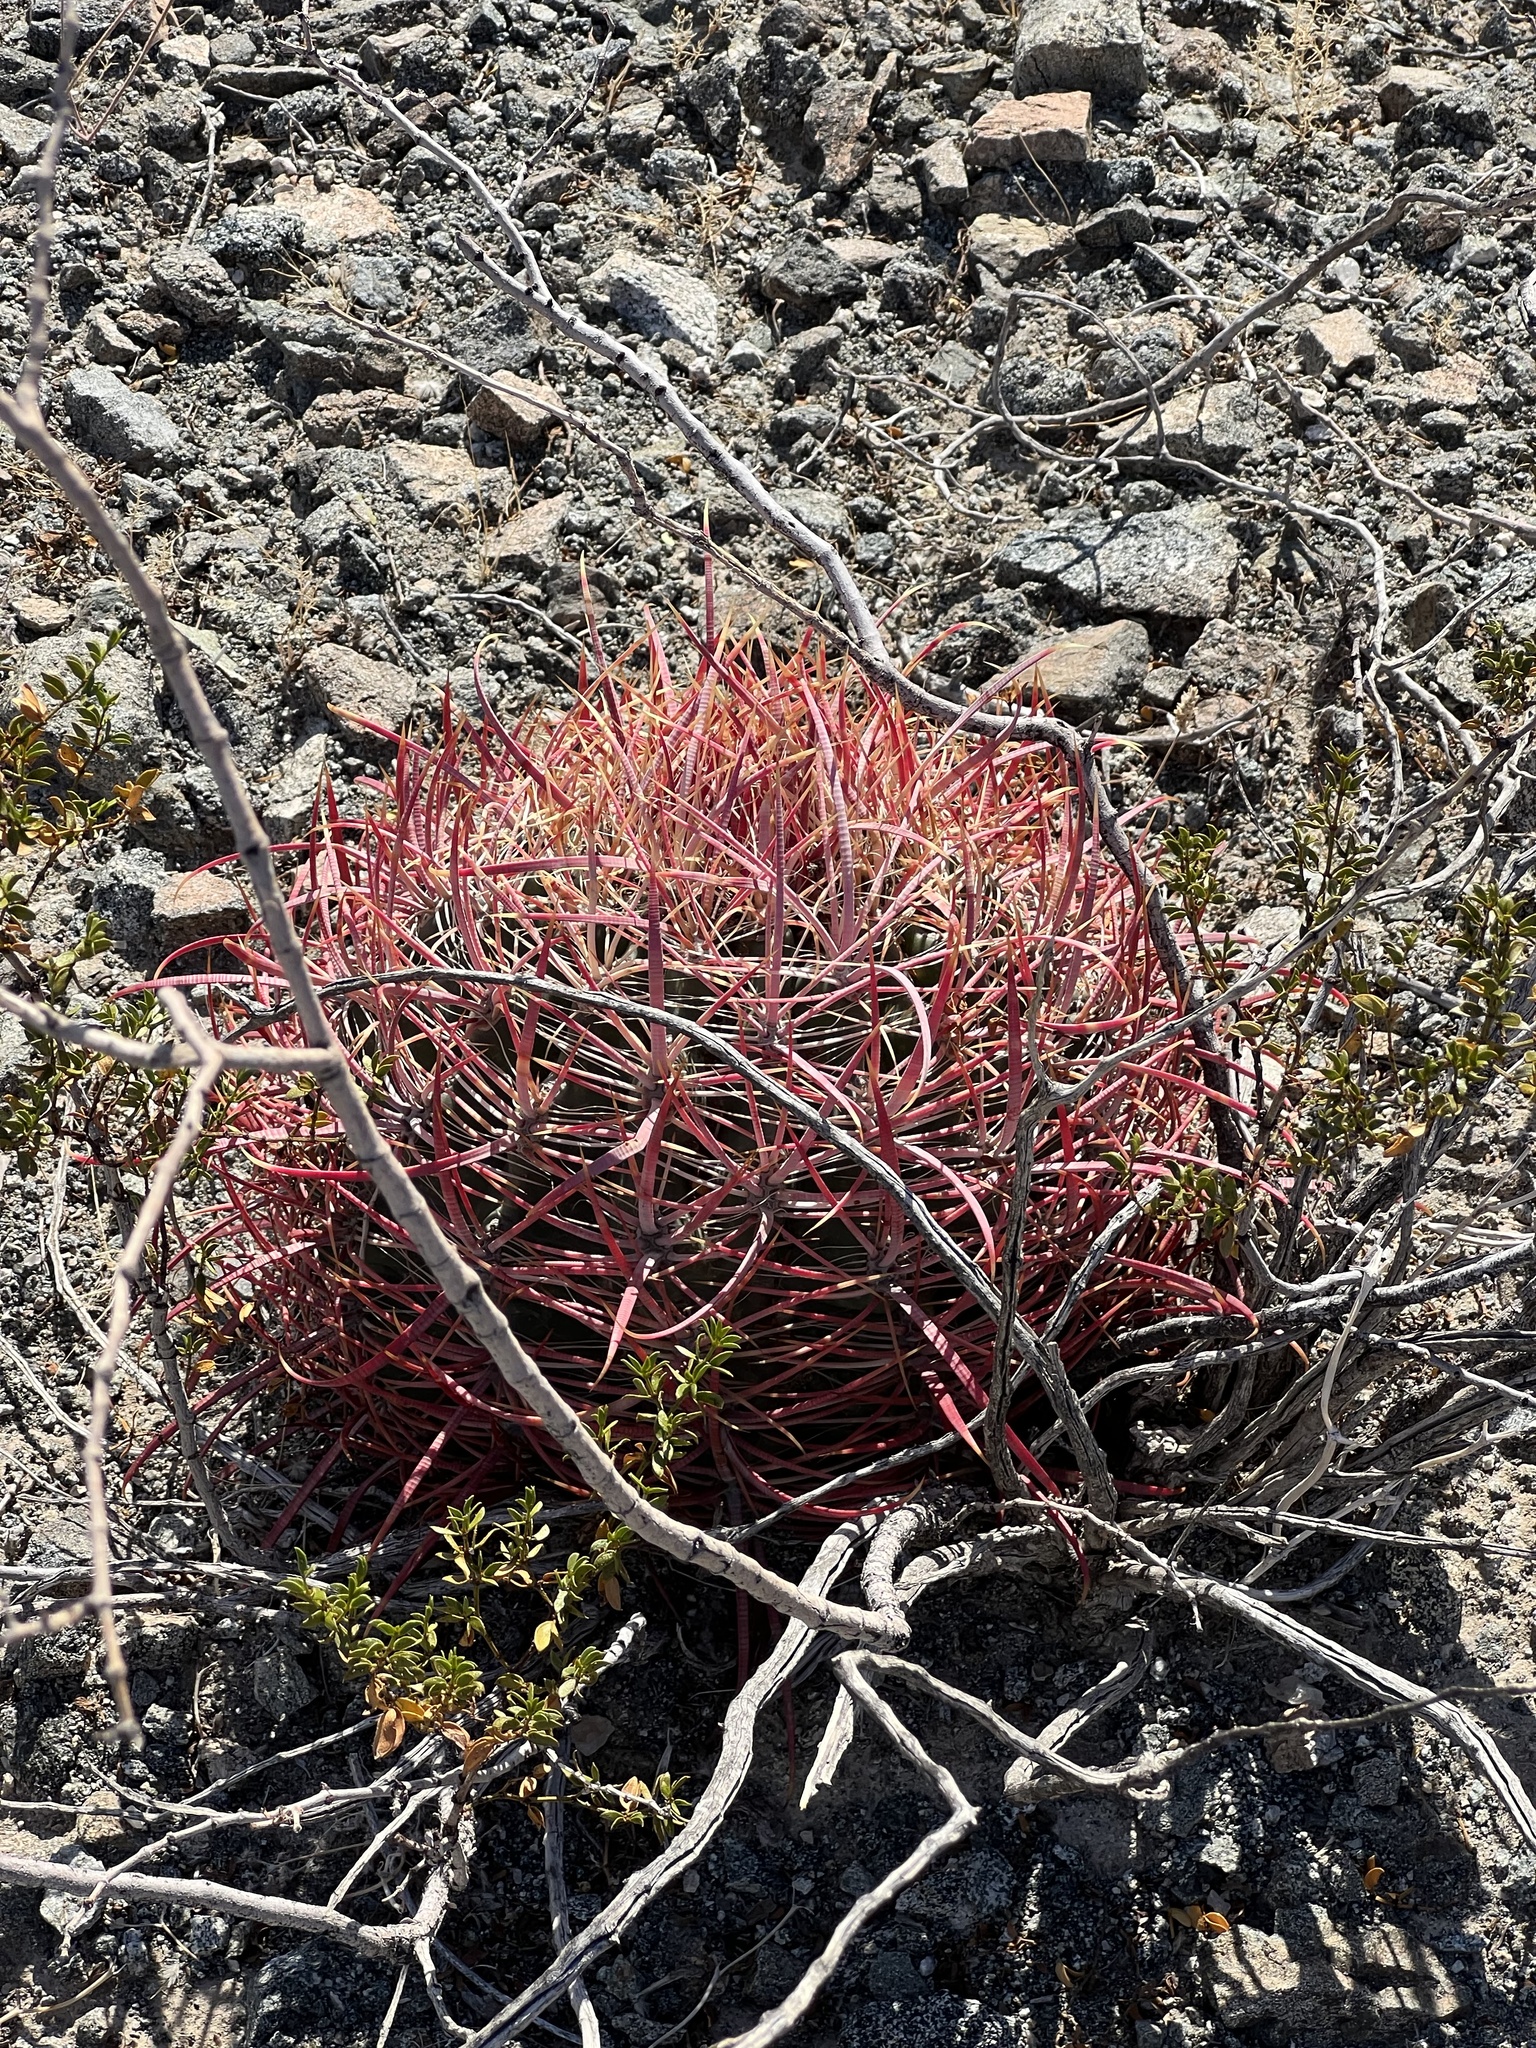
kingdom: Plantae
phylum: Tracheophyta
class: Magnoliopsida
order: Caryophyllales
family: Cactaceae
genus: Ferocactus
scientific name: Ferocactus cylindraceus
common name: California barrel cactus
